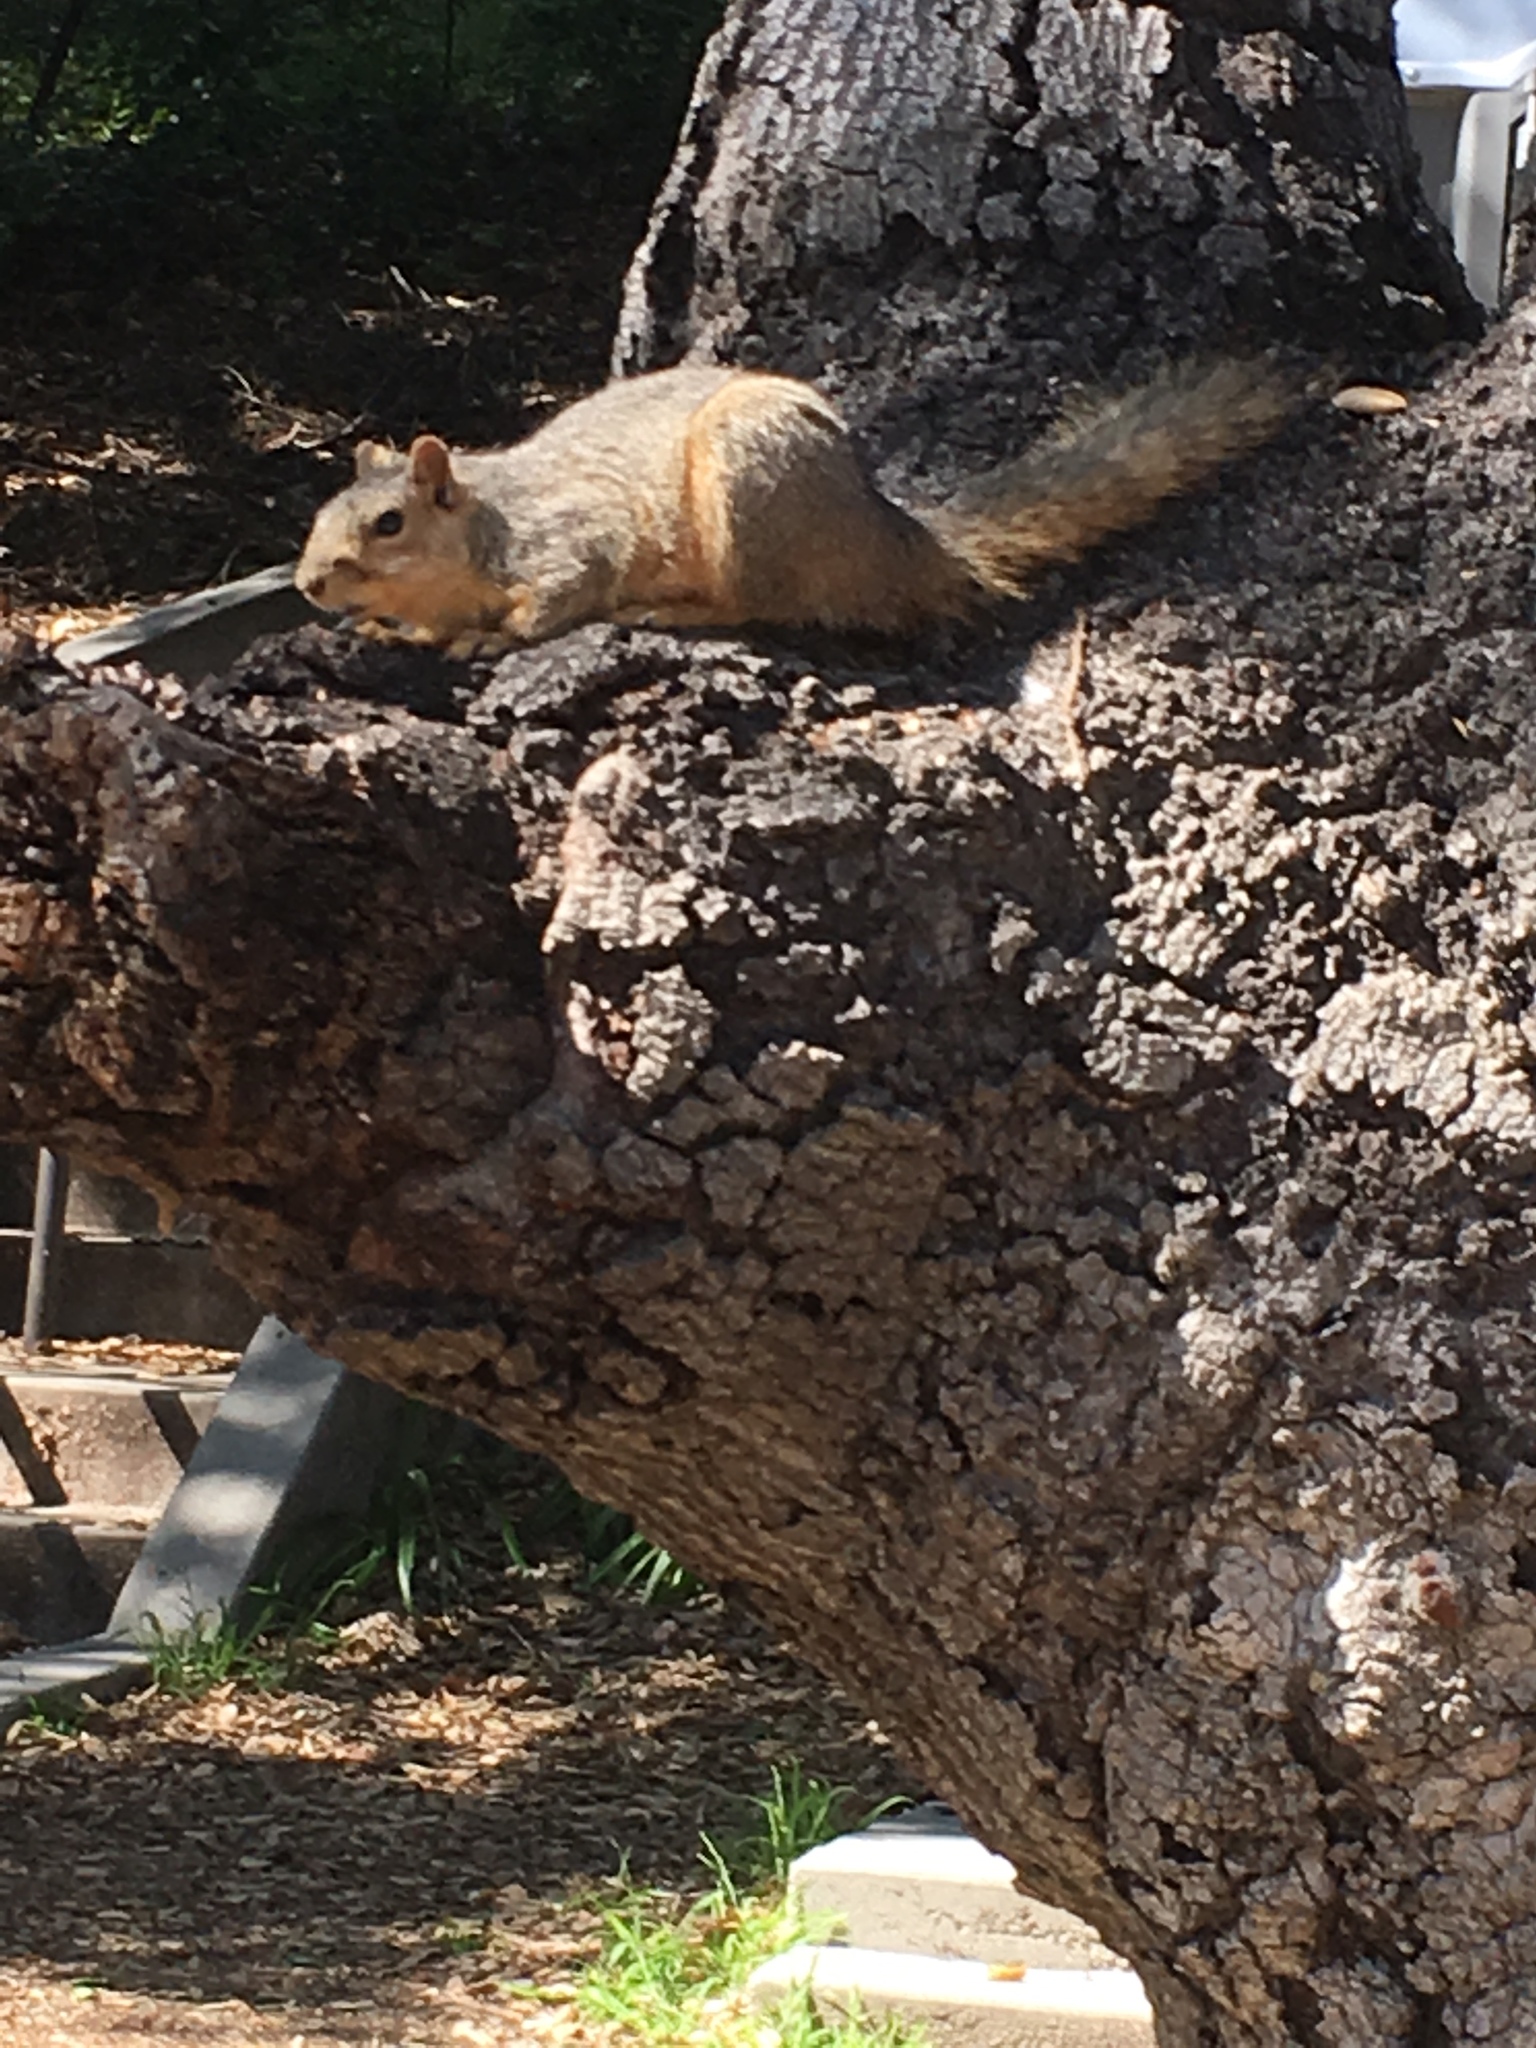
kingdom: Animalia
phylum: Chordata
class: Mammalia
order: Rodentia
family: Sciuridae
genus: Sciurus
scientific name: Sciurus niger
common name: Fox squirrel
